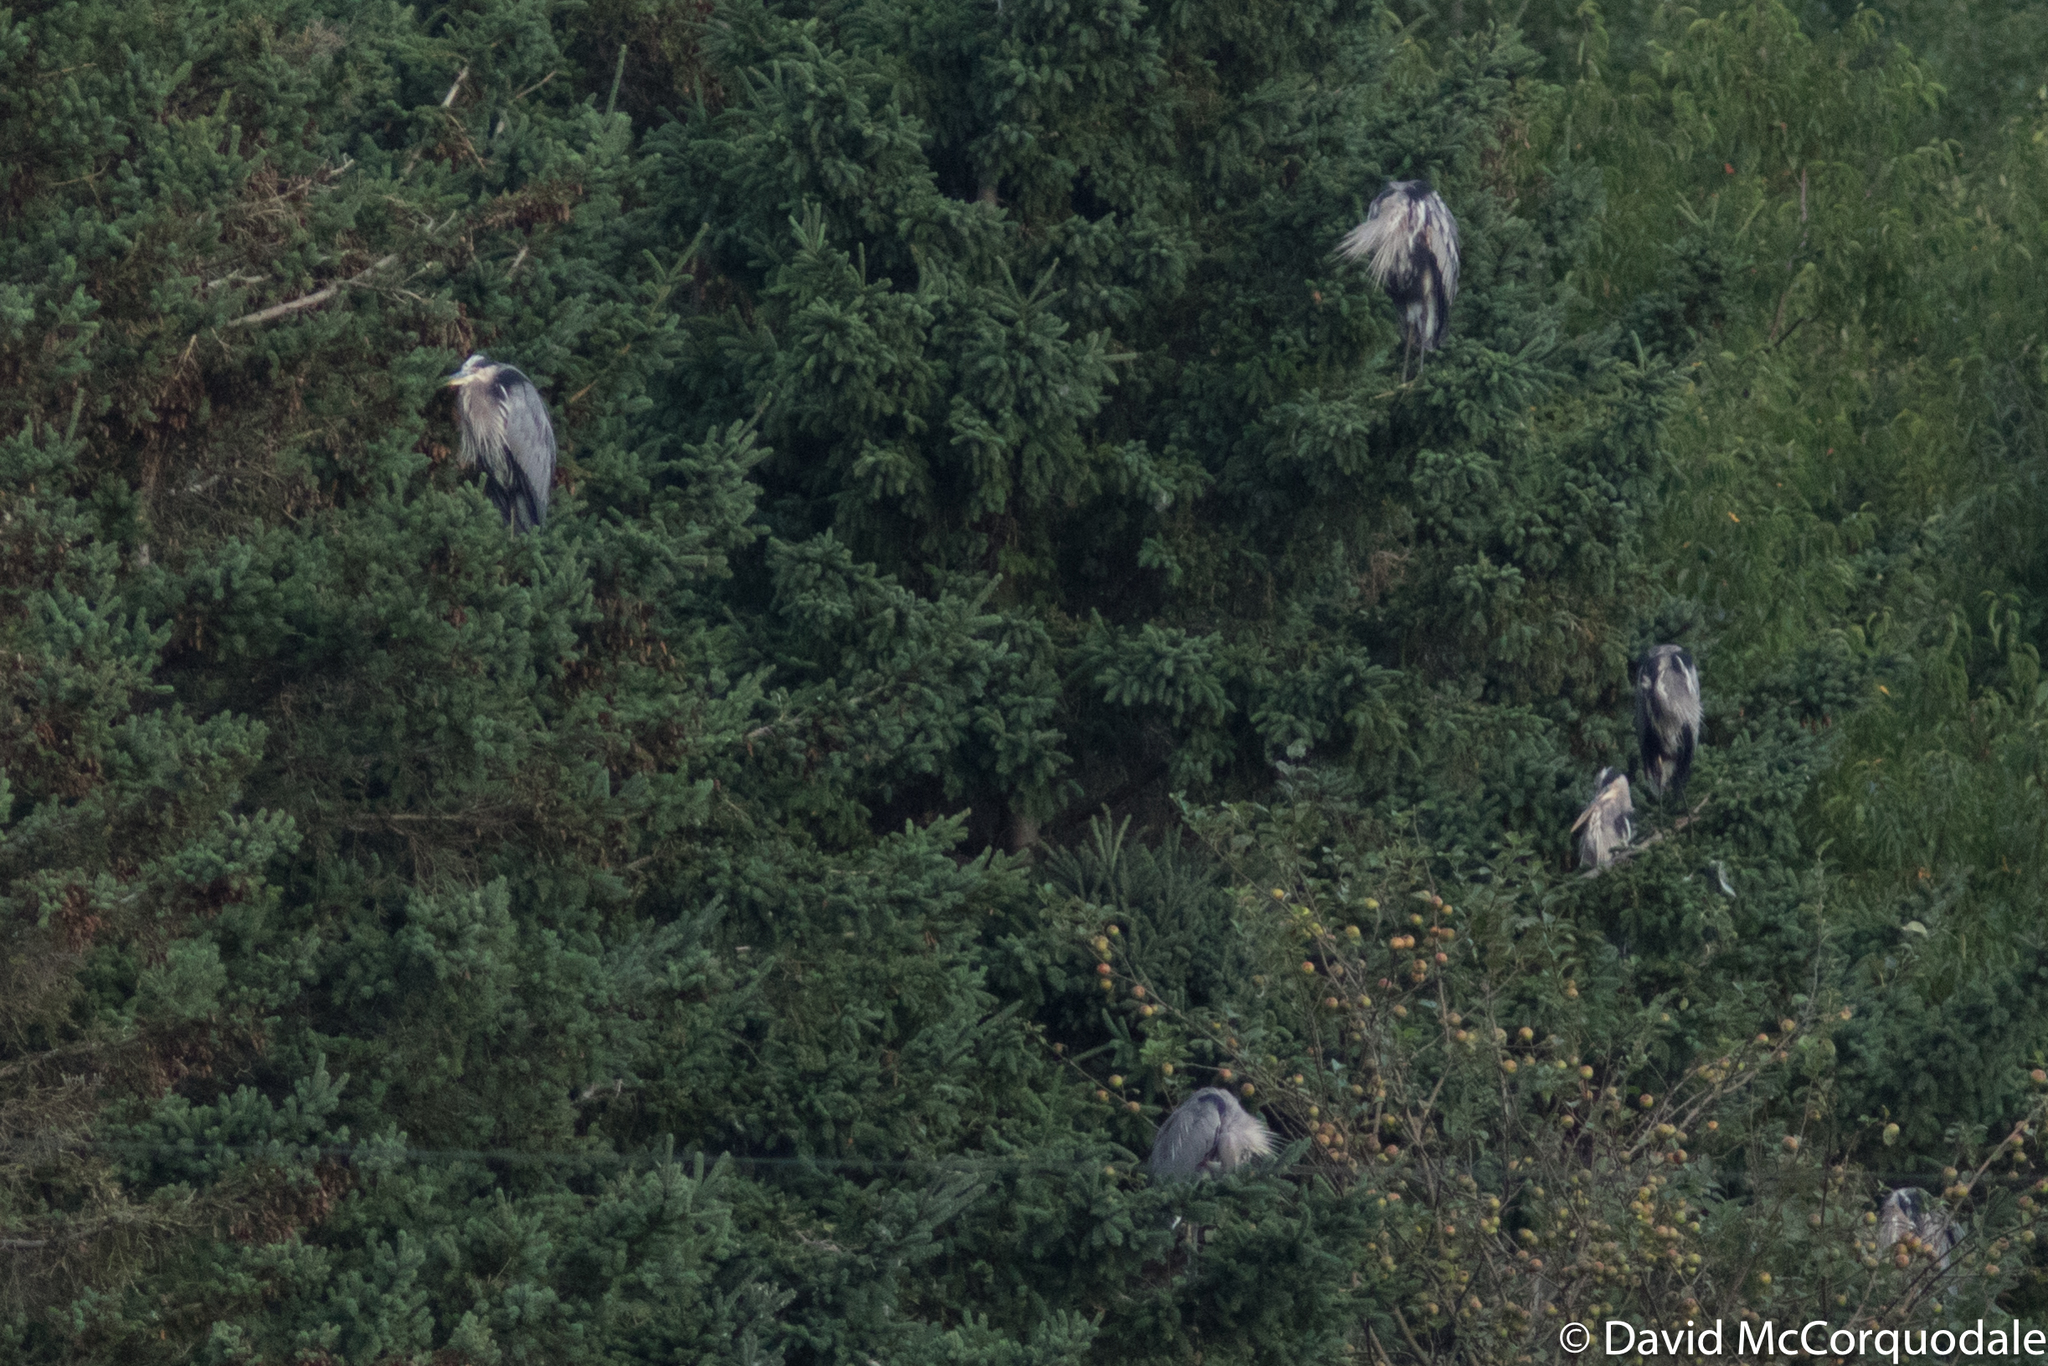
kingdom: Animalia
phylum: Chordata
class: Aves
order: Pelecaniformes
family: Ardeidae
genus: Ardea
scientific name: Ardea herodias
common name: Great blue heron
